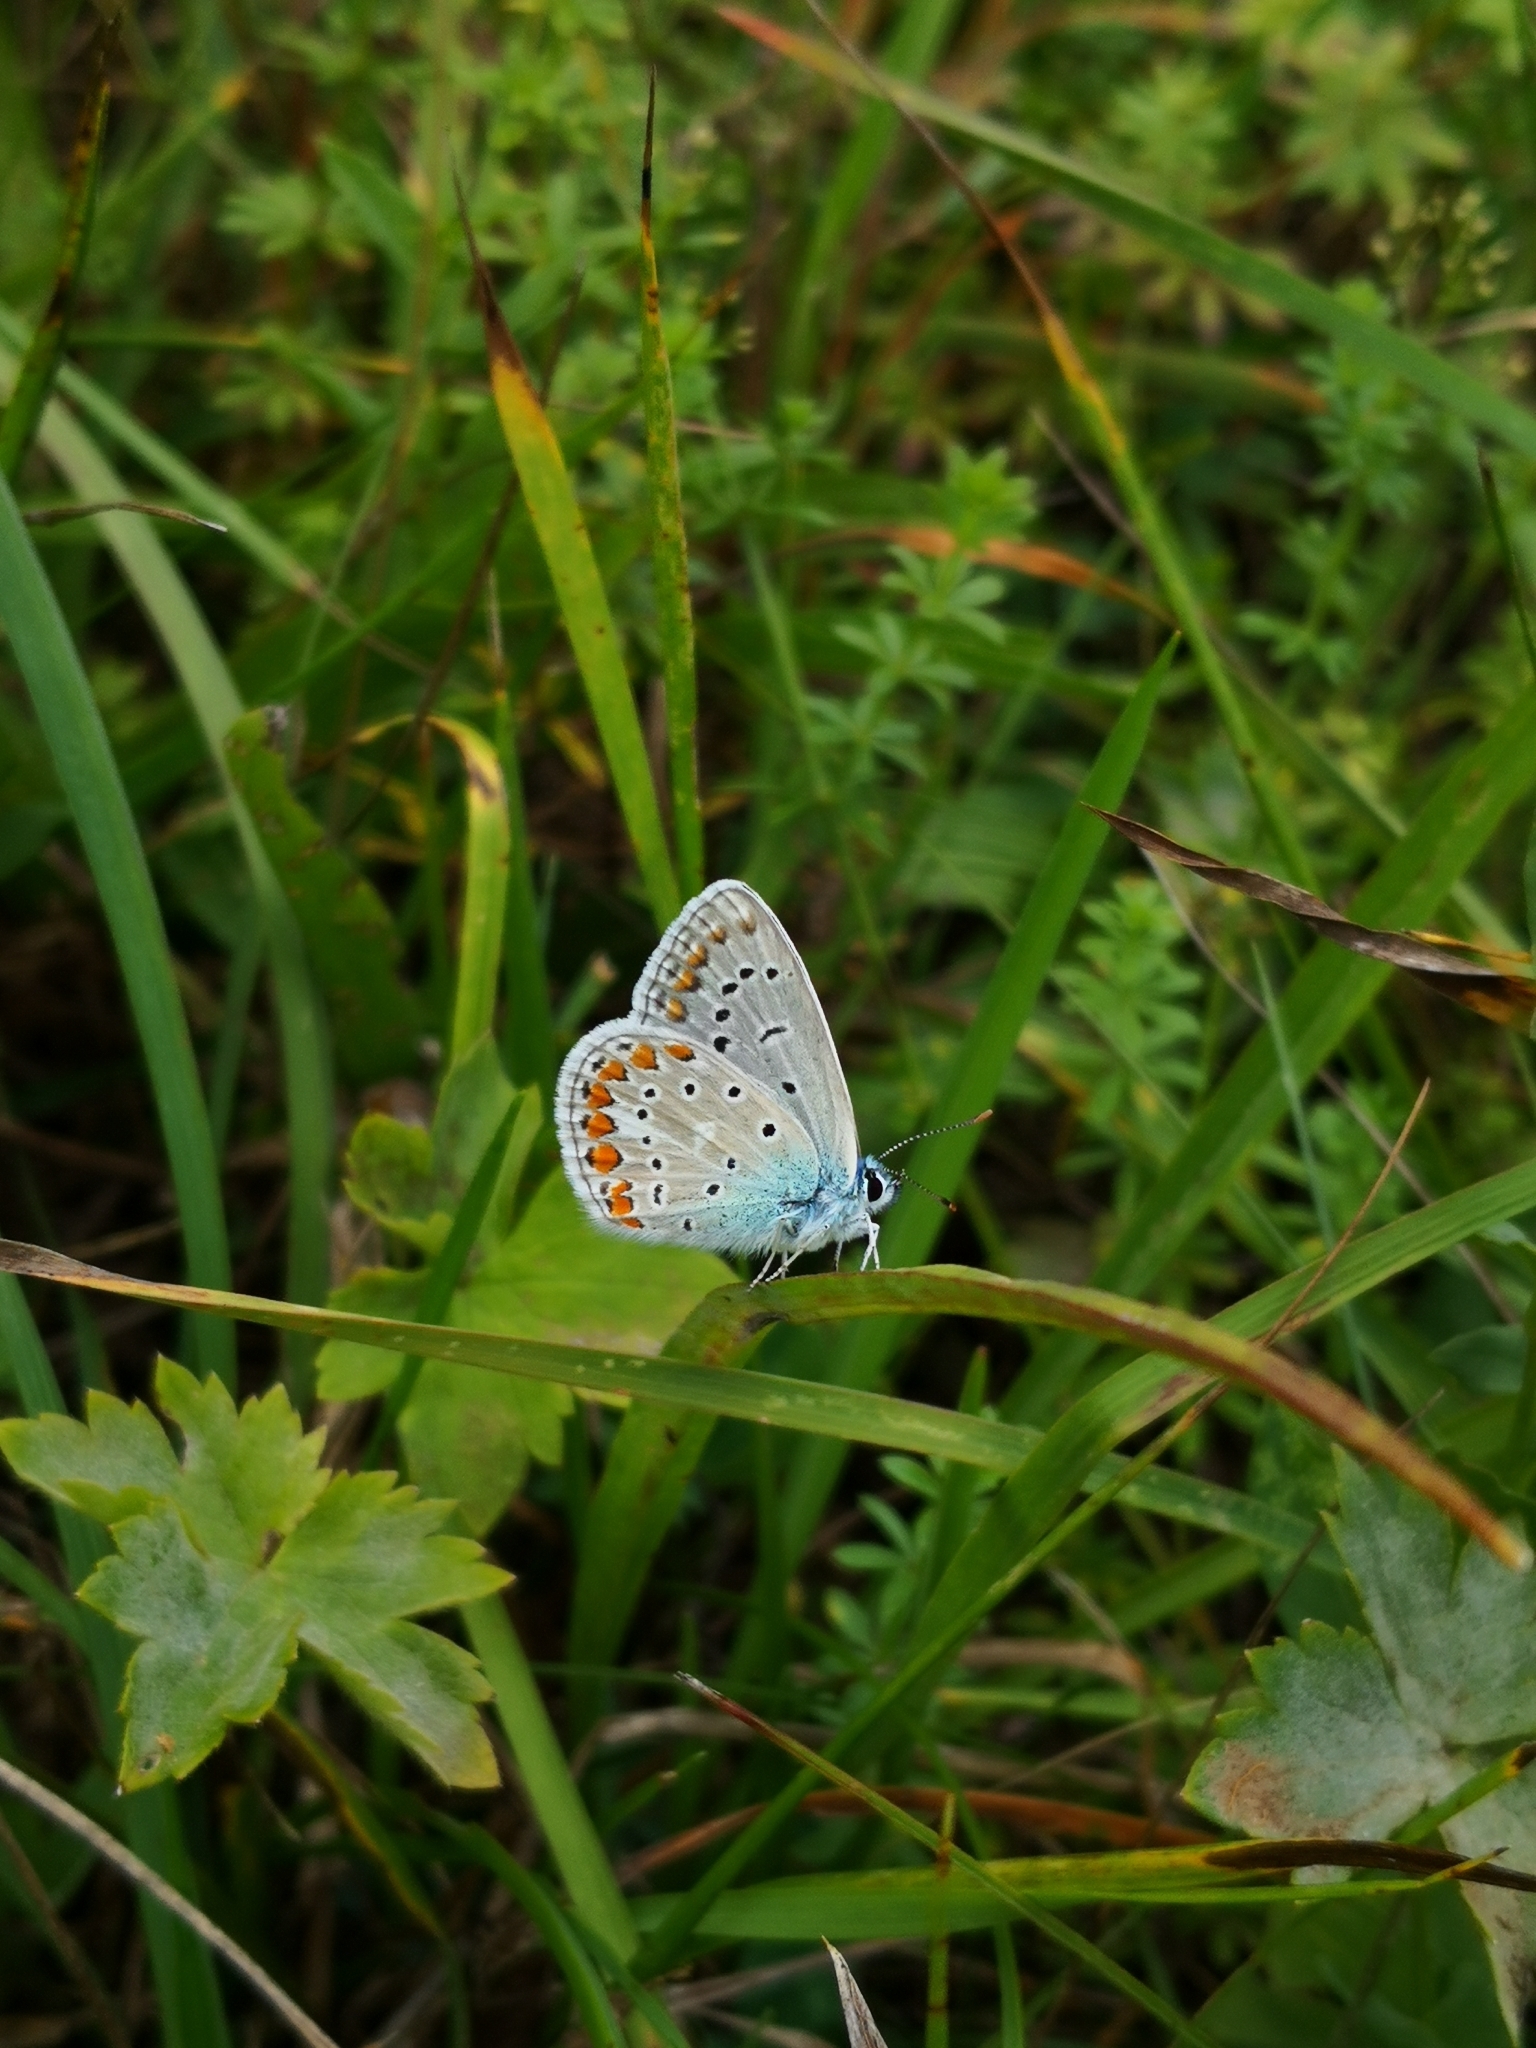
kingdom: Animalia
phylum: Arthropoda
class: Insecta
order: Lepidoptera
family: Lycaenidae
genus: Polyommatus
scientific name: Polyommatus icarus
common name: Common blue
